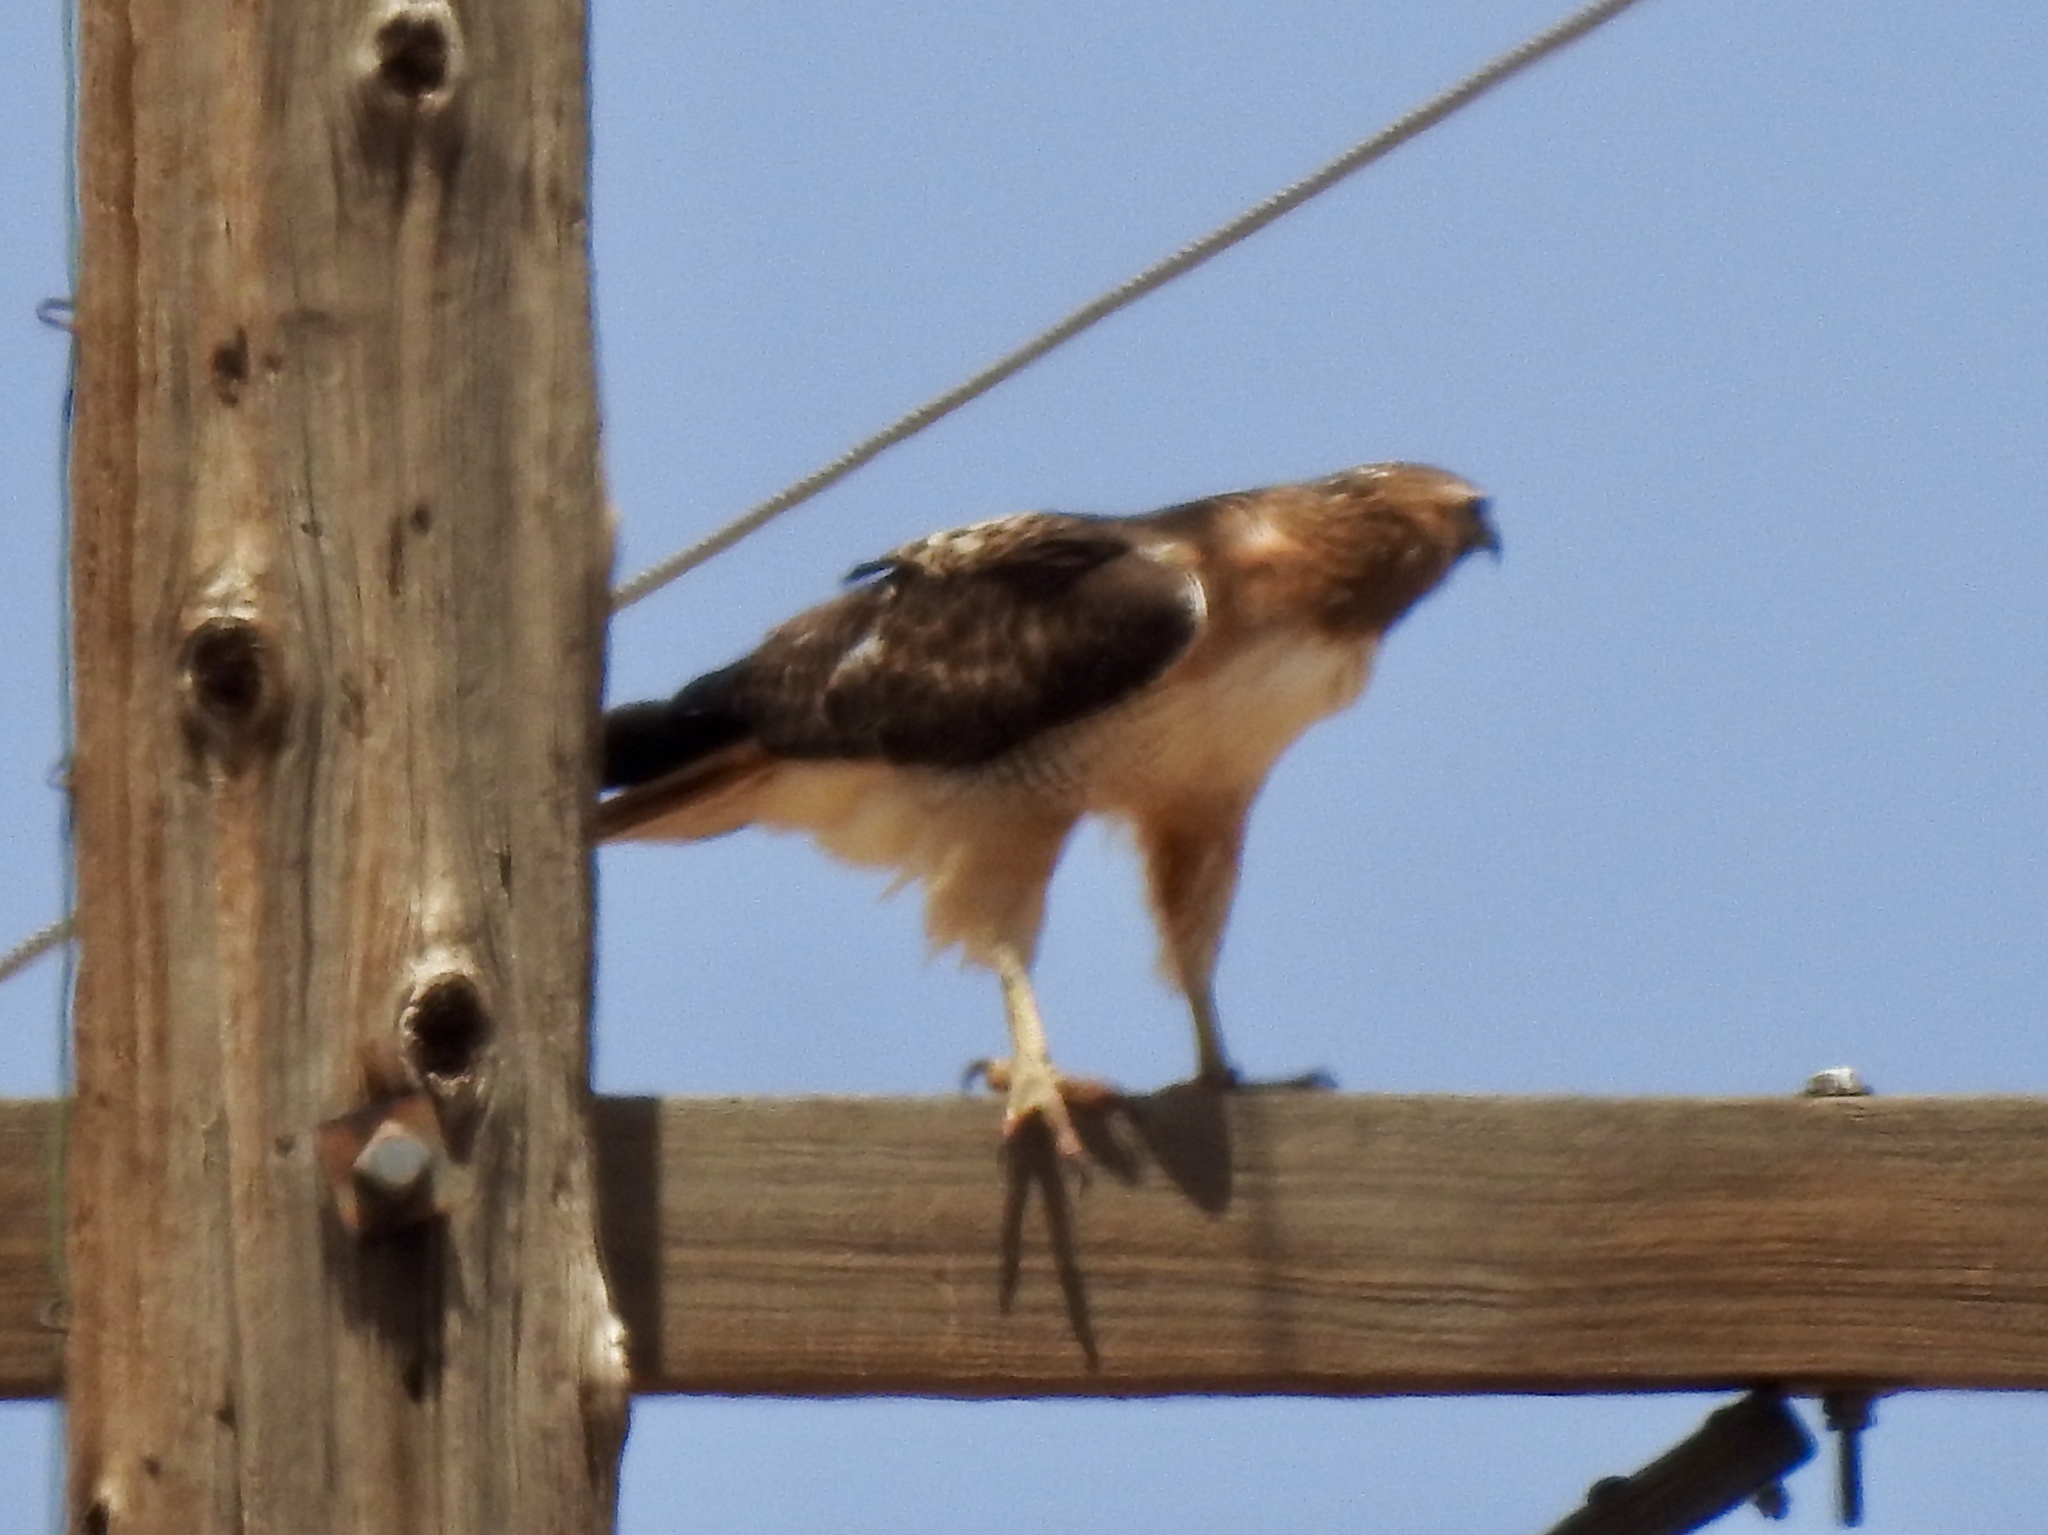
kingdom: Animalia
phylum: Chordata
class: Aves
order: Accipitriformes
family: Accipitridae
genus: Buteo
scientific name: Buteo jamaicensis
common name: Red-tailed hawk
